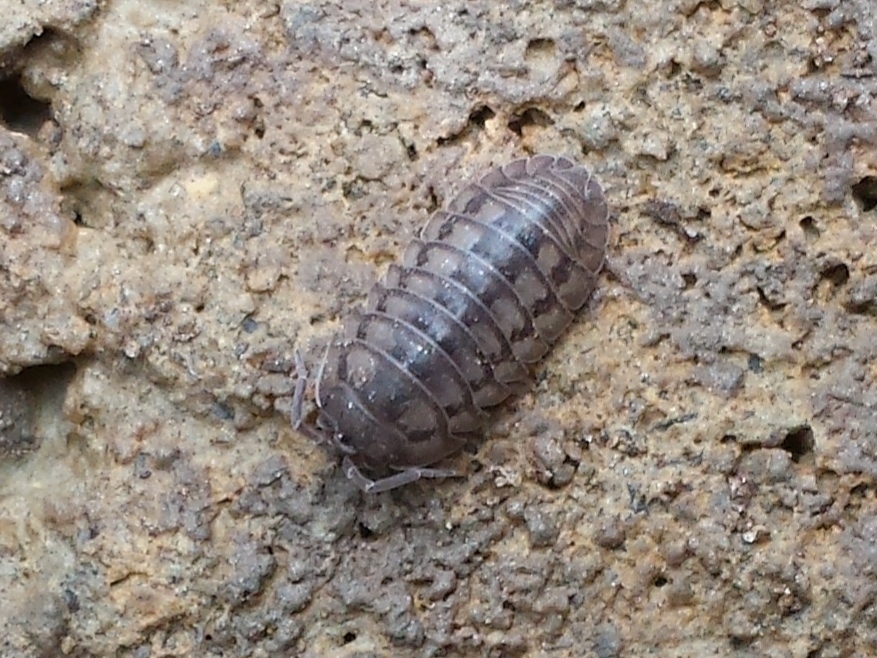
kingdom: Animalia
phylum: Arthropoda
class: Malacostraca
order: Isopoda
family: Armadillidiidae
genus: Armadillidium
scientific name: Armadillidium nasatum
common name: Isopod
